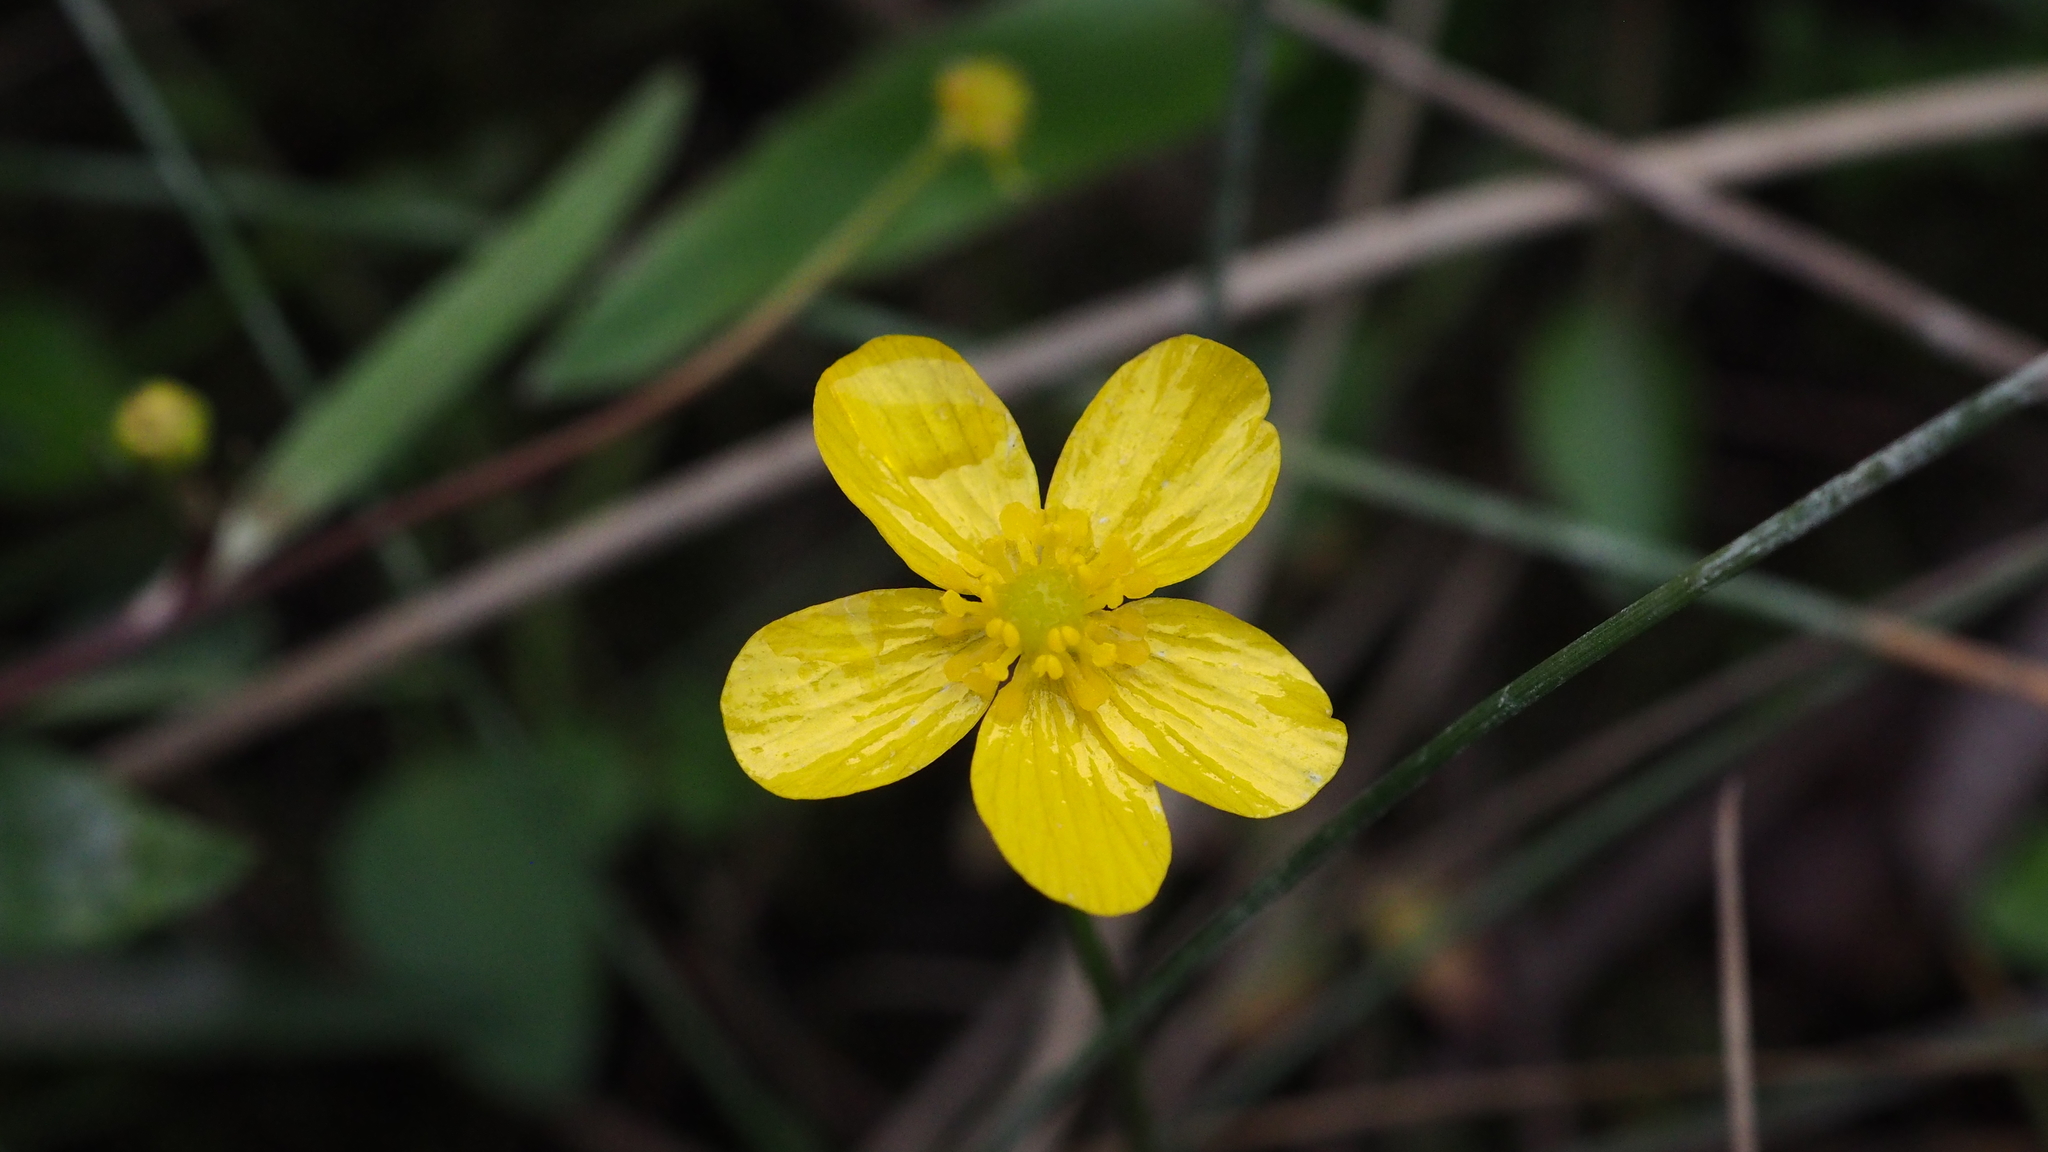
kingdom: Plantae
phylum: Tracheophyta
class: Magnoliopsida
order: Ranunculales
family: Ranunculaceae
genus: Ranunculus
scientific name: Ranunculus flammula
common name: Lesser spearwort
